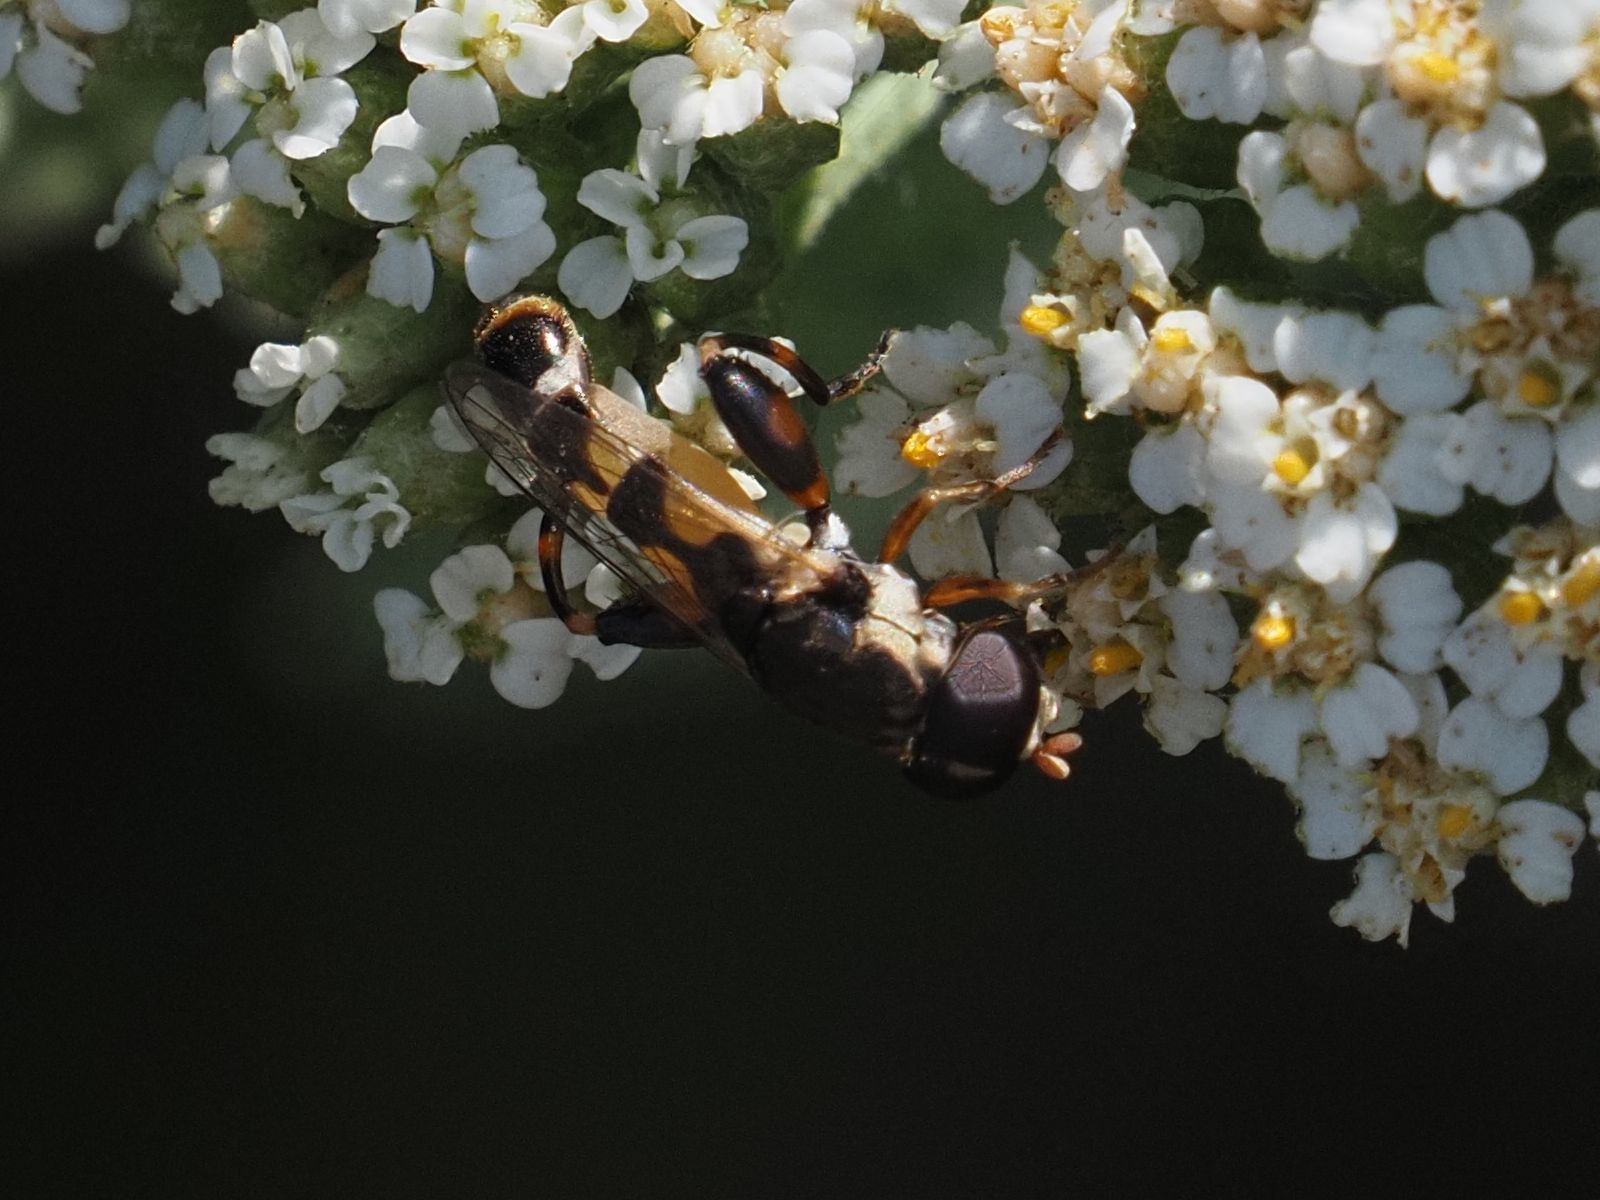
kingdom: Animalia
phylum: Arthropoda
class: Insecta
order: Diptera
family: Syrphidae
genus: Syritta
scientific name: Syritta pipiens
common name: Hover fly
